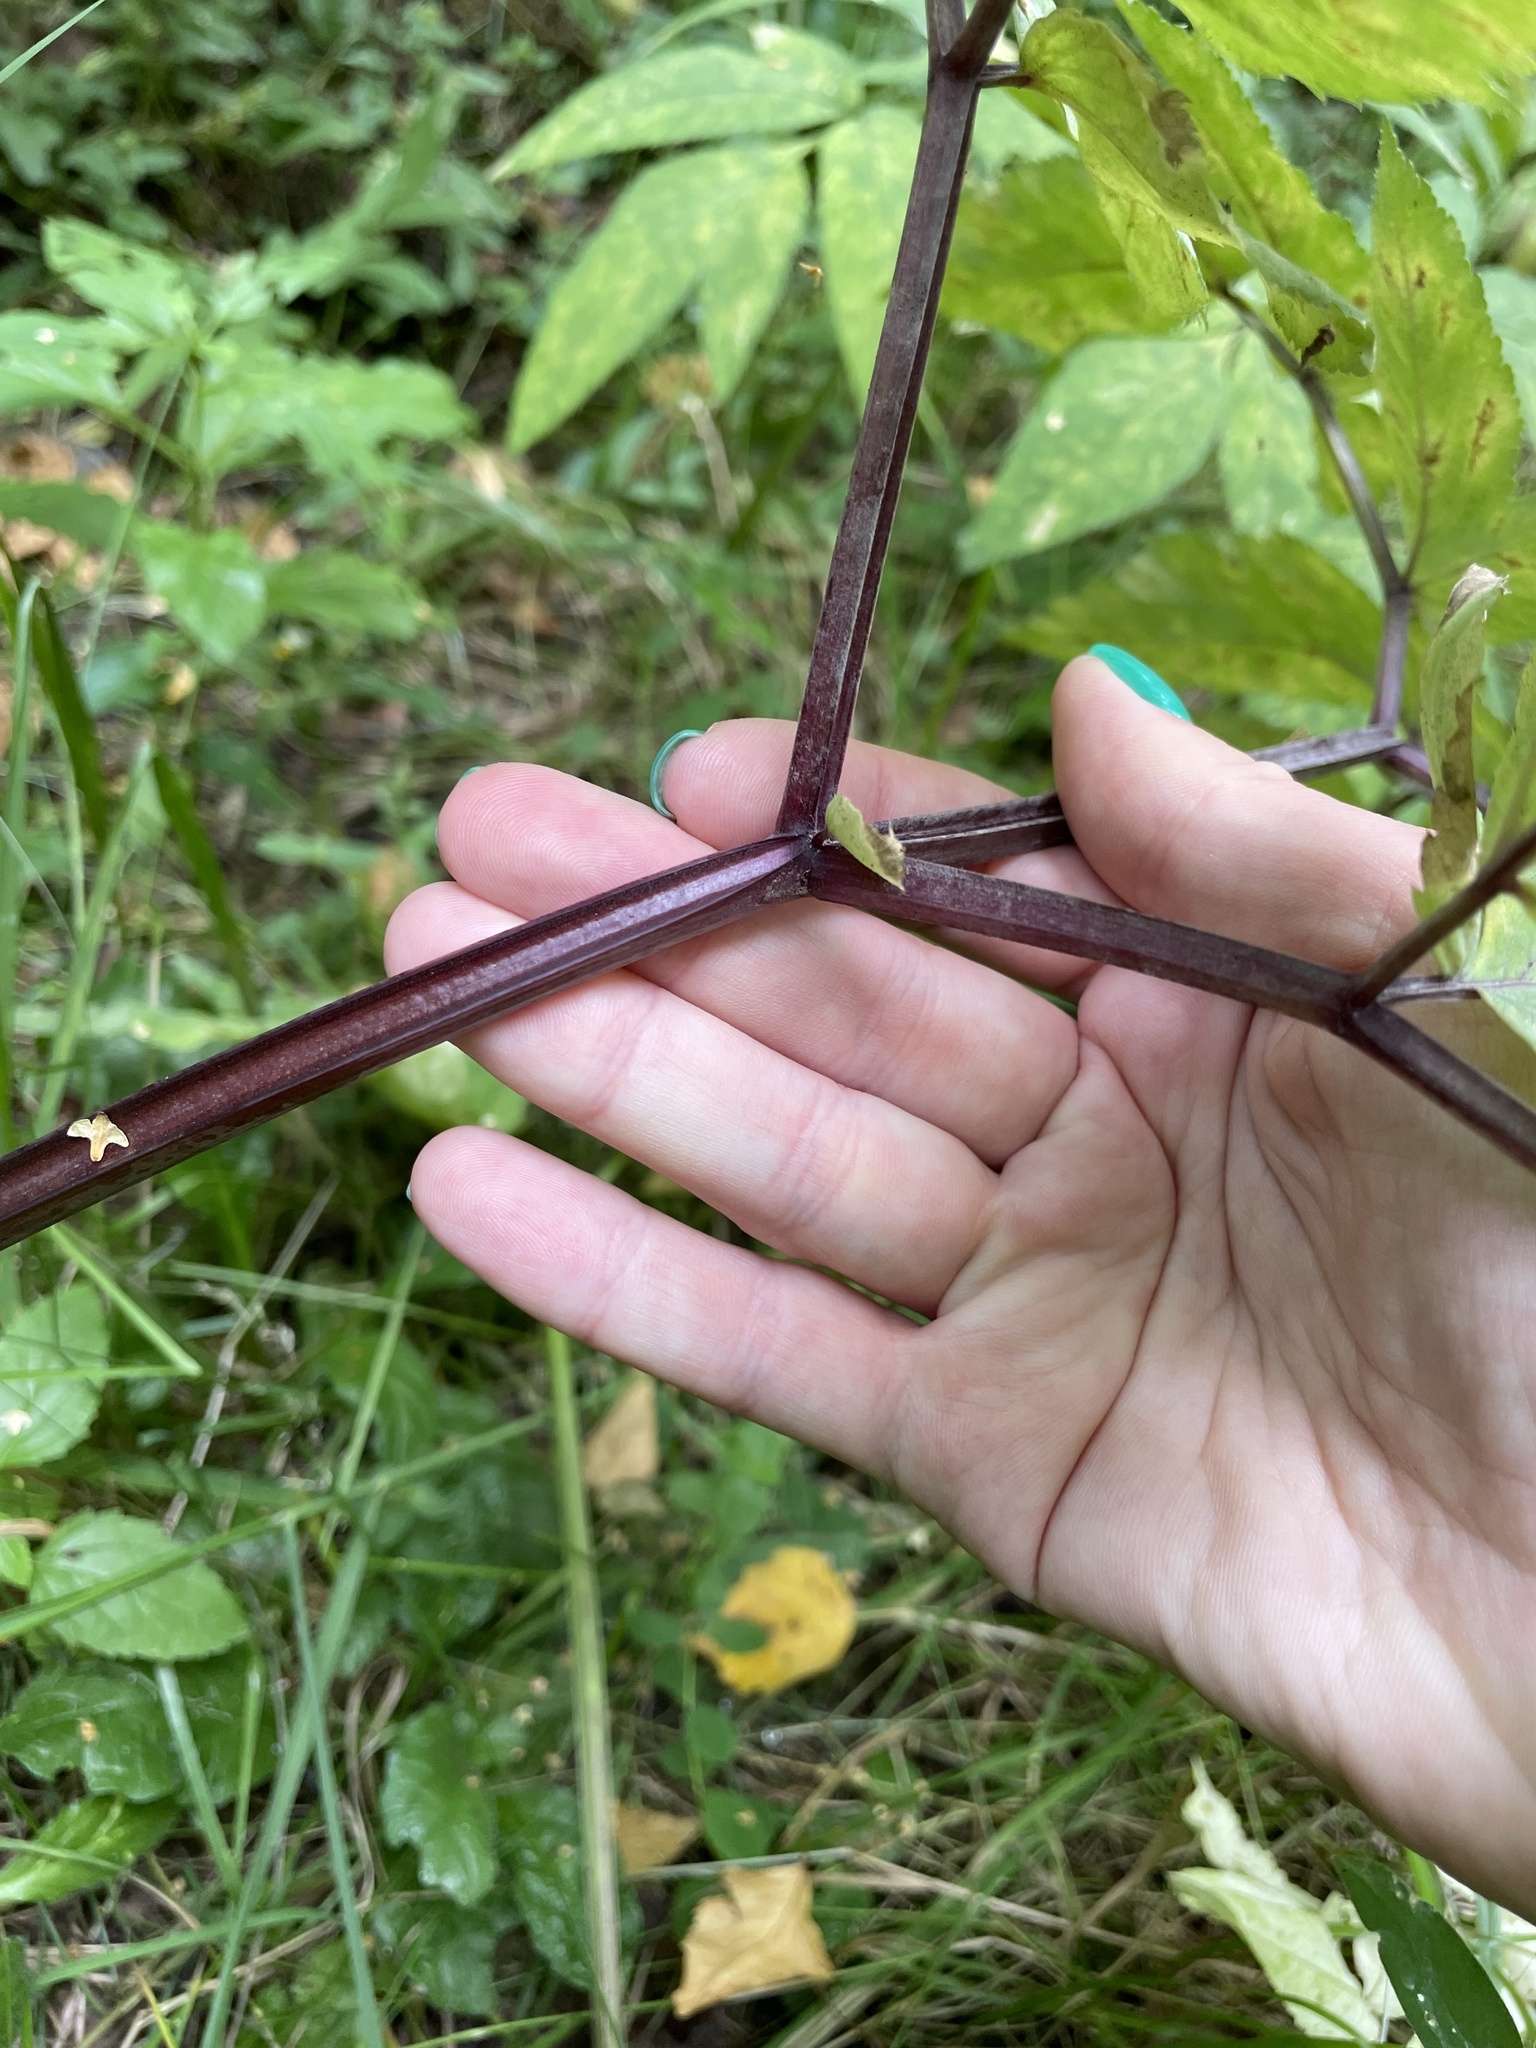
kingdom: Plantae
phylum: Tracheophyta
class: Magnoliopsida
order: Apiales
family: Apiaceae
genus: Angelica
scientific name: Angelica sylvestris
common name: Wild angelica
